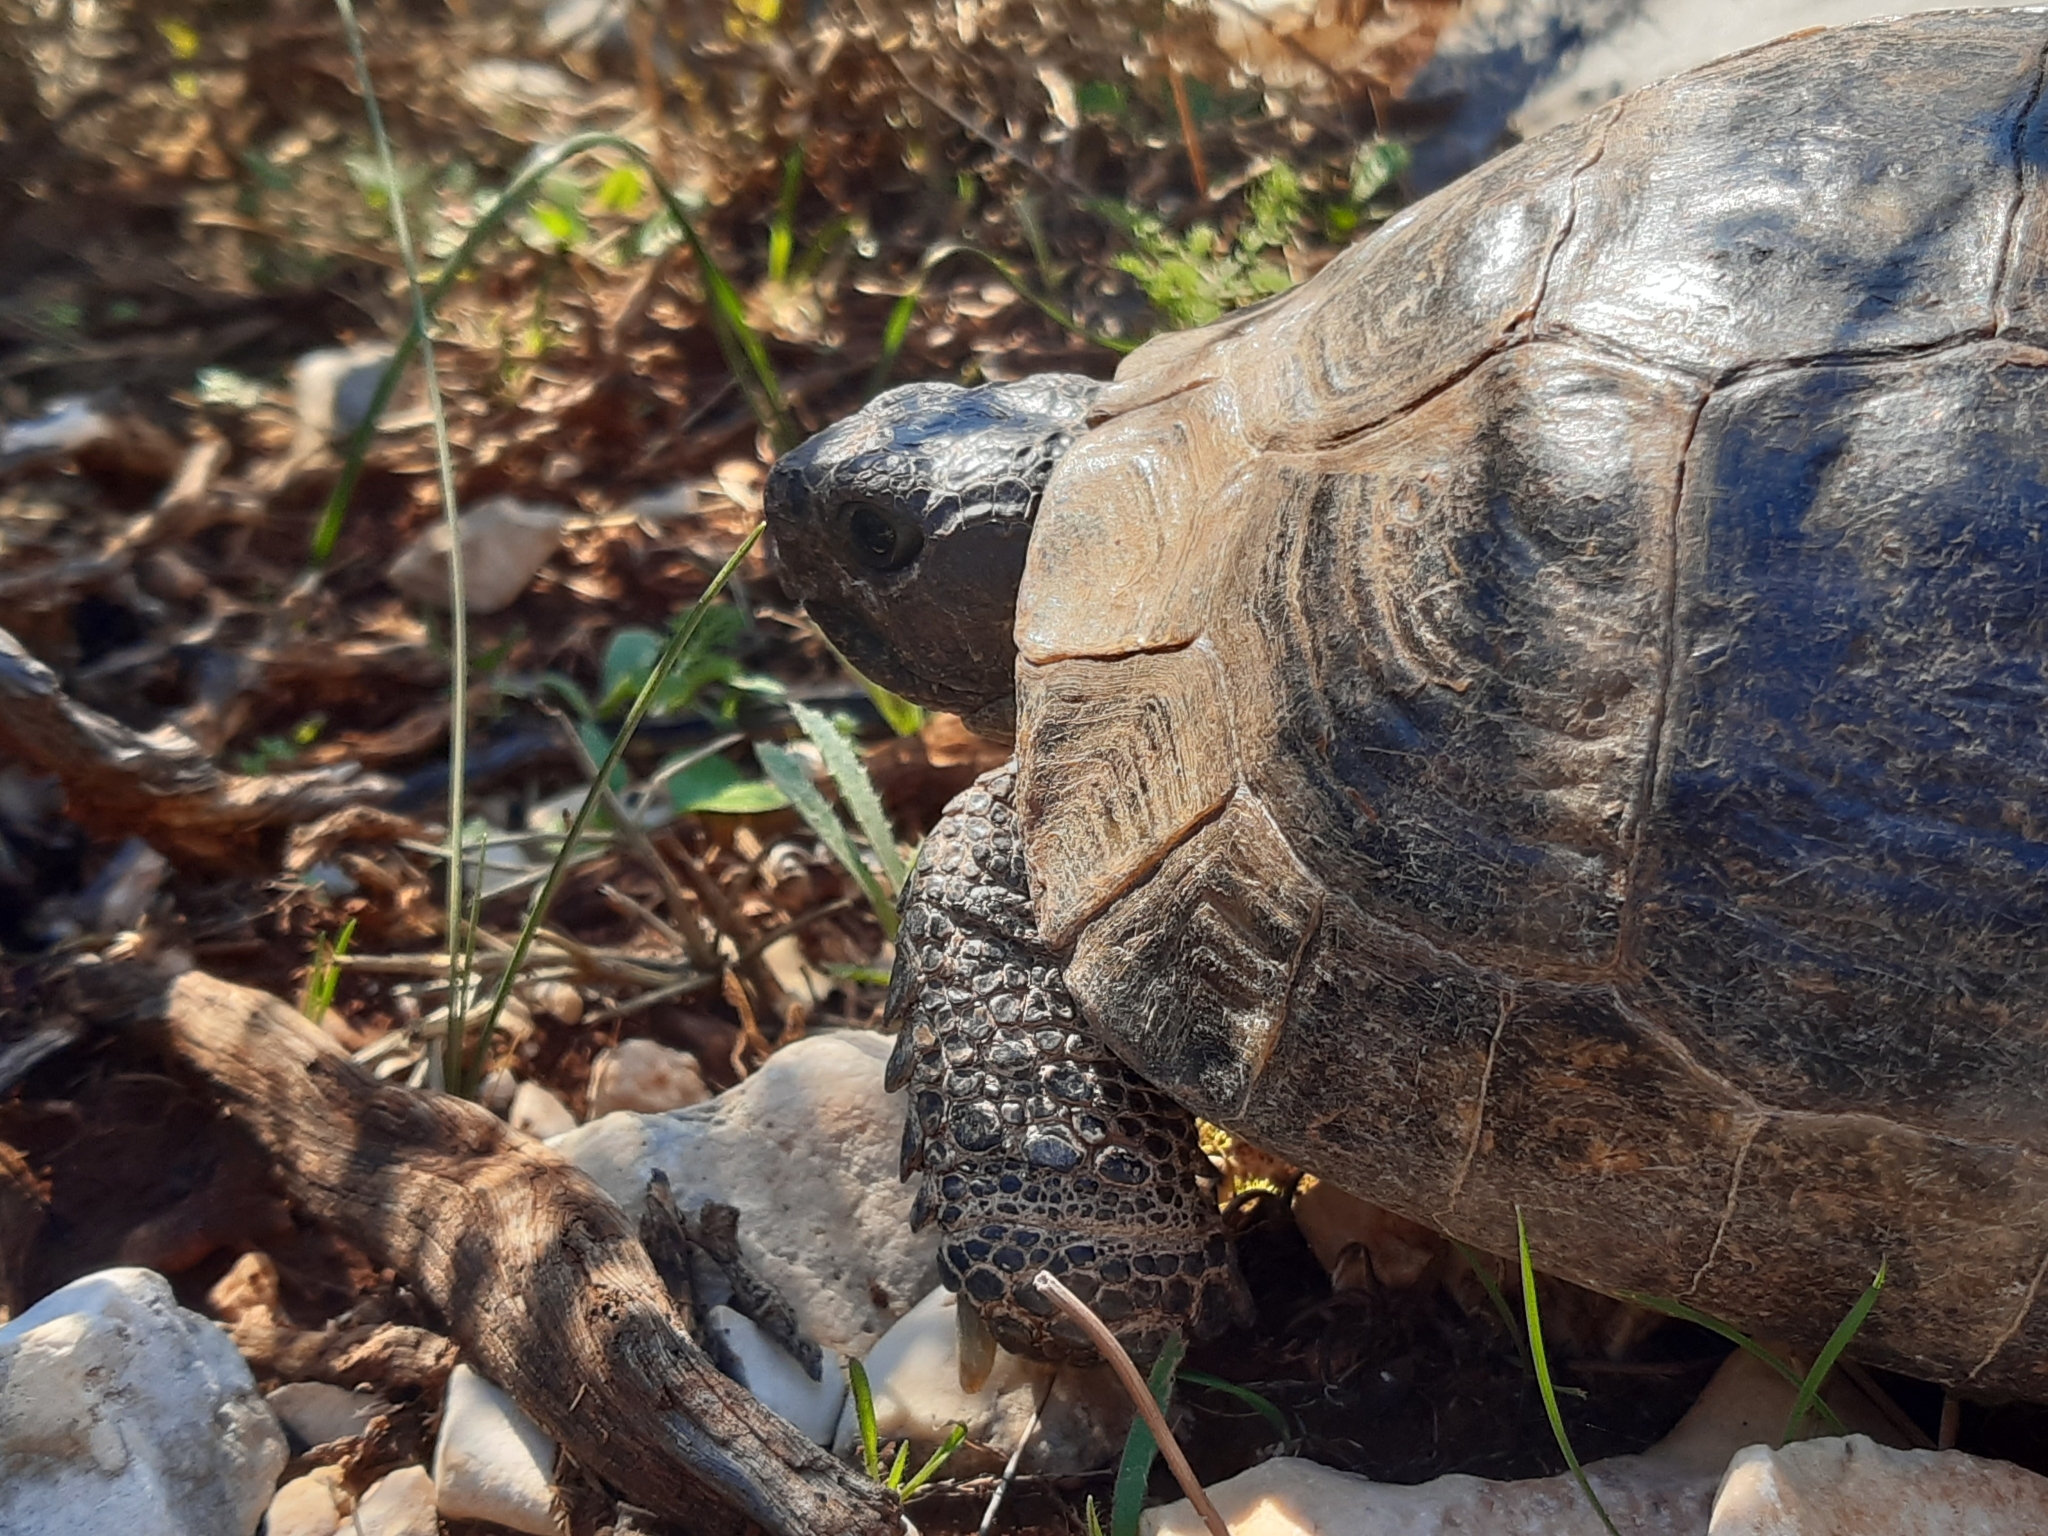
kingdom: Animalia
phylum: Chordata
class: Testudines
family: Testudinidae
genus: Testudo
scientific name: Testudo graeca
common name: Common tortoise
